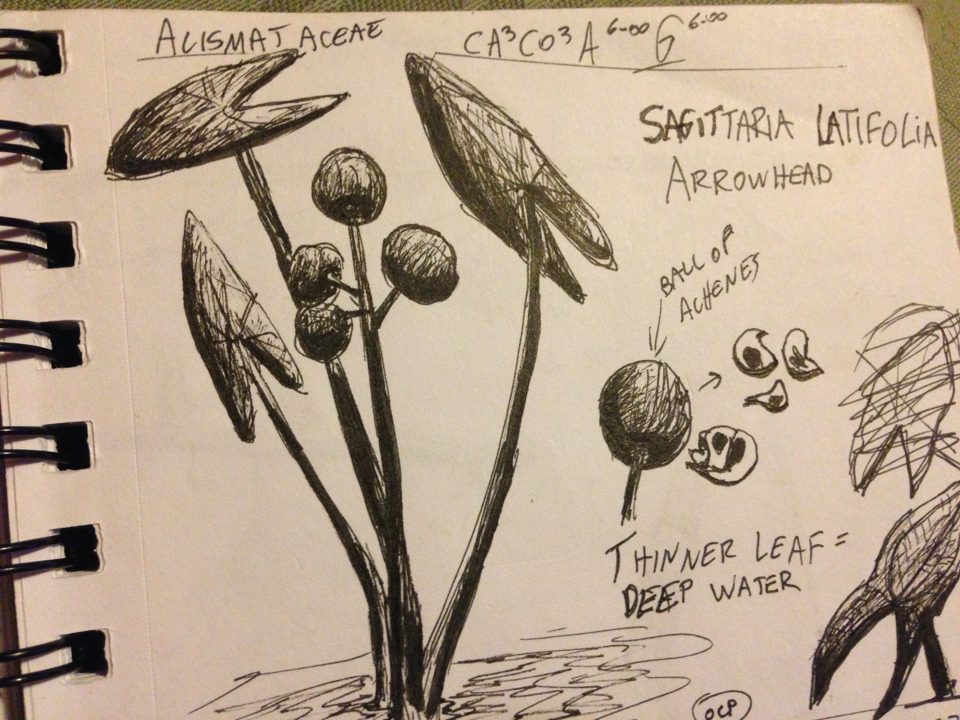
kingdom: Plantae
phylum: Tracheophyta
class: Liliopsida
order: Alismatales
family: Alismataceae
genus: Sagittaria
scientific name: Sagittaria latifolia
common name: Duck-potato
